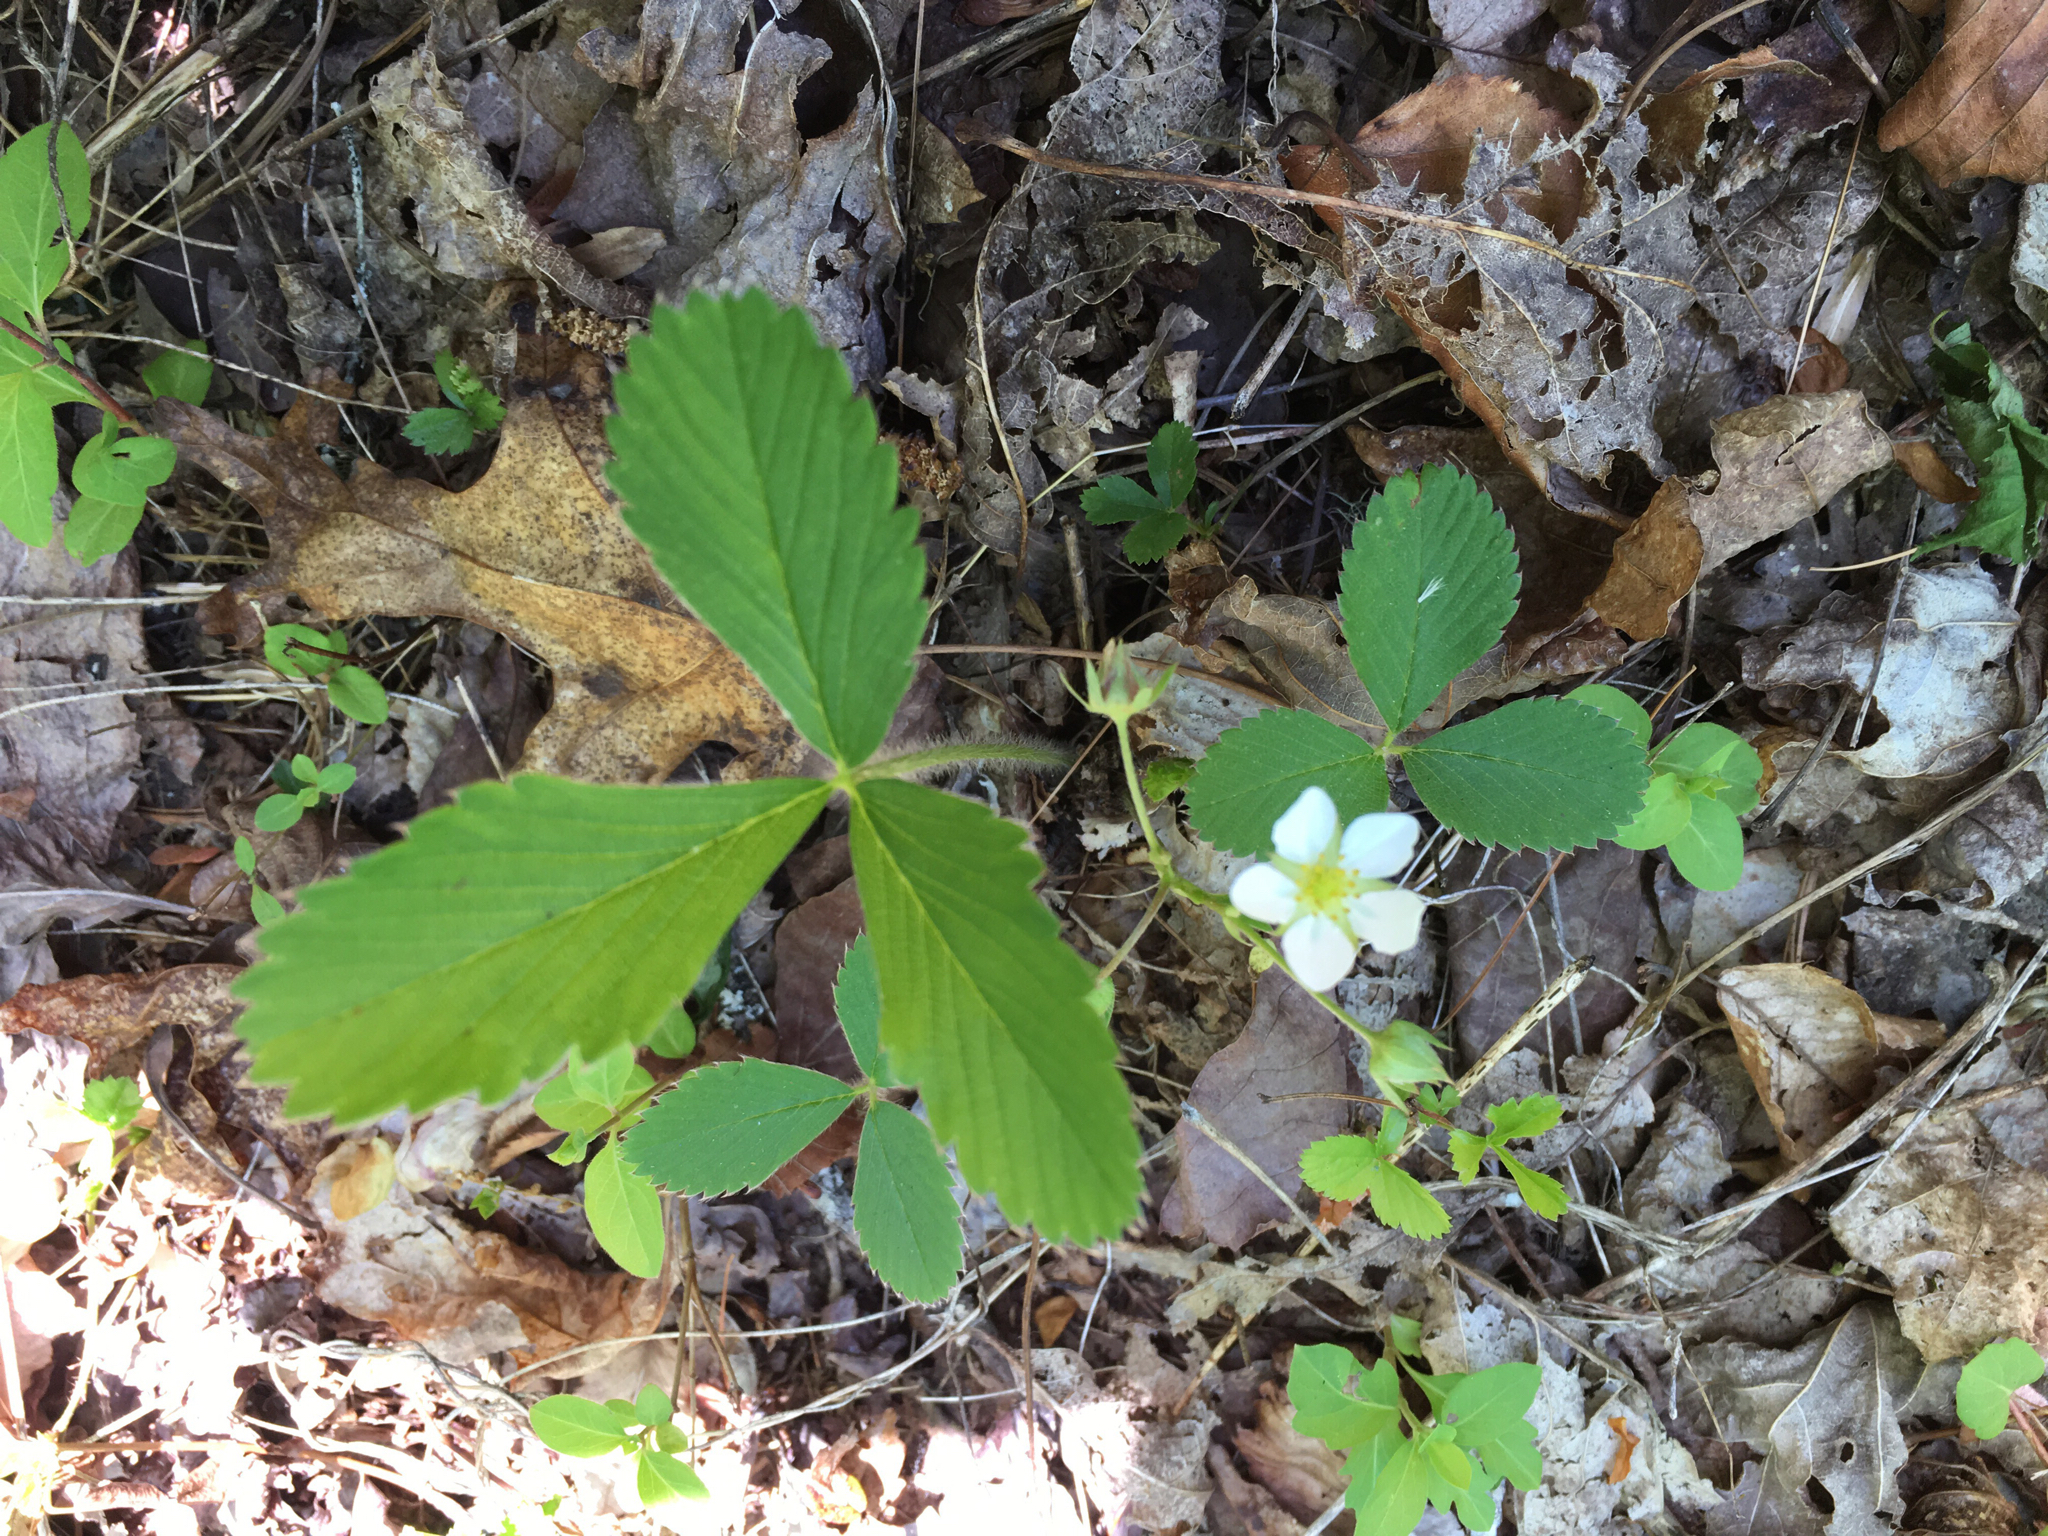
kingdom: Plantae
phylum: Tracheophyta
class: Magnoliopsida
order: Rosales
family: Rosaceae
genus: Fragaria
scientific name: Fragaria virginiana
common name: Thickleaved wild strawberry
